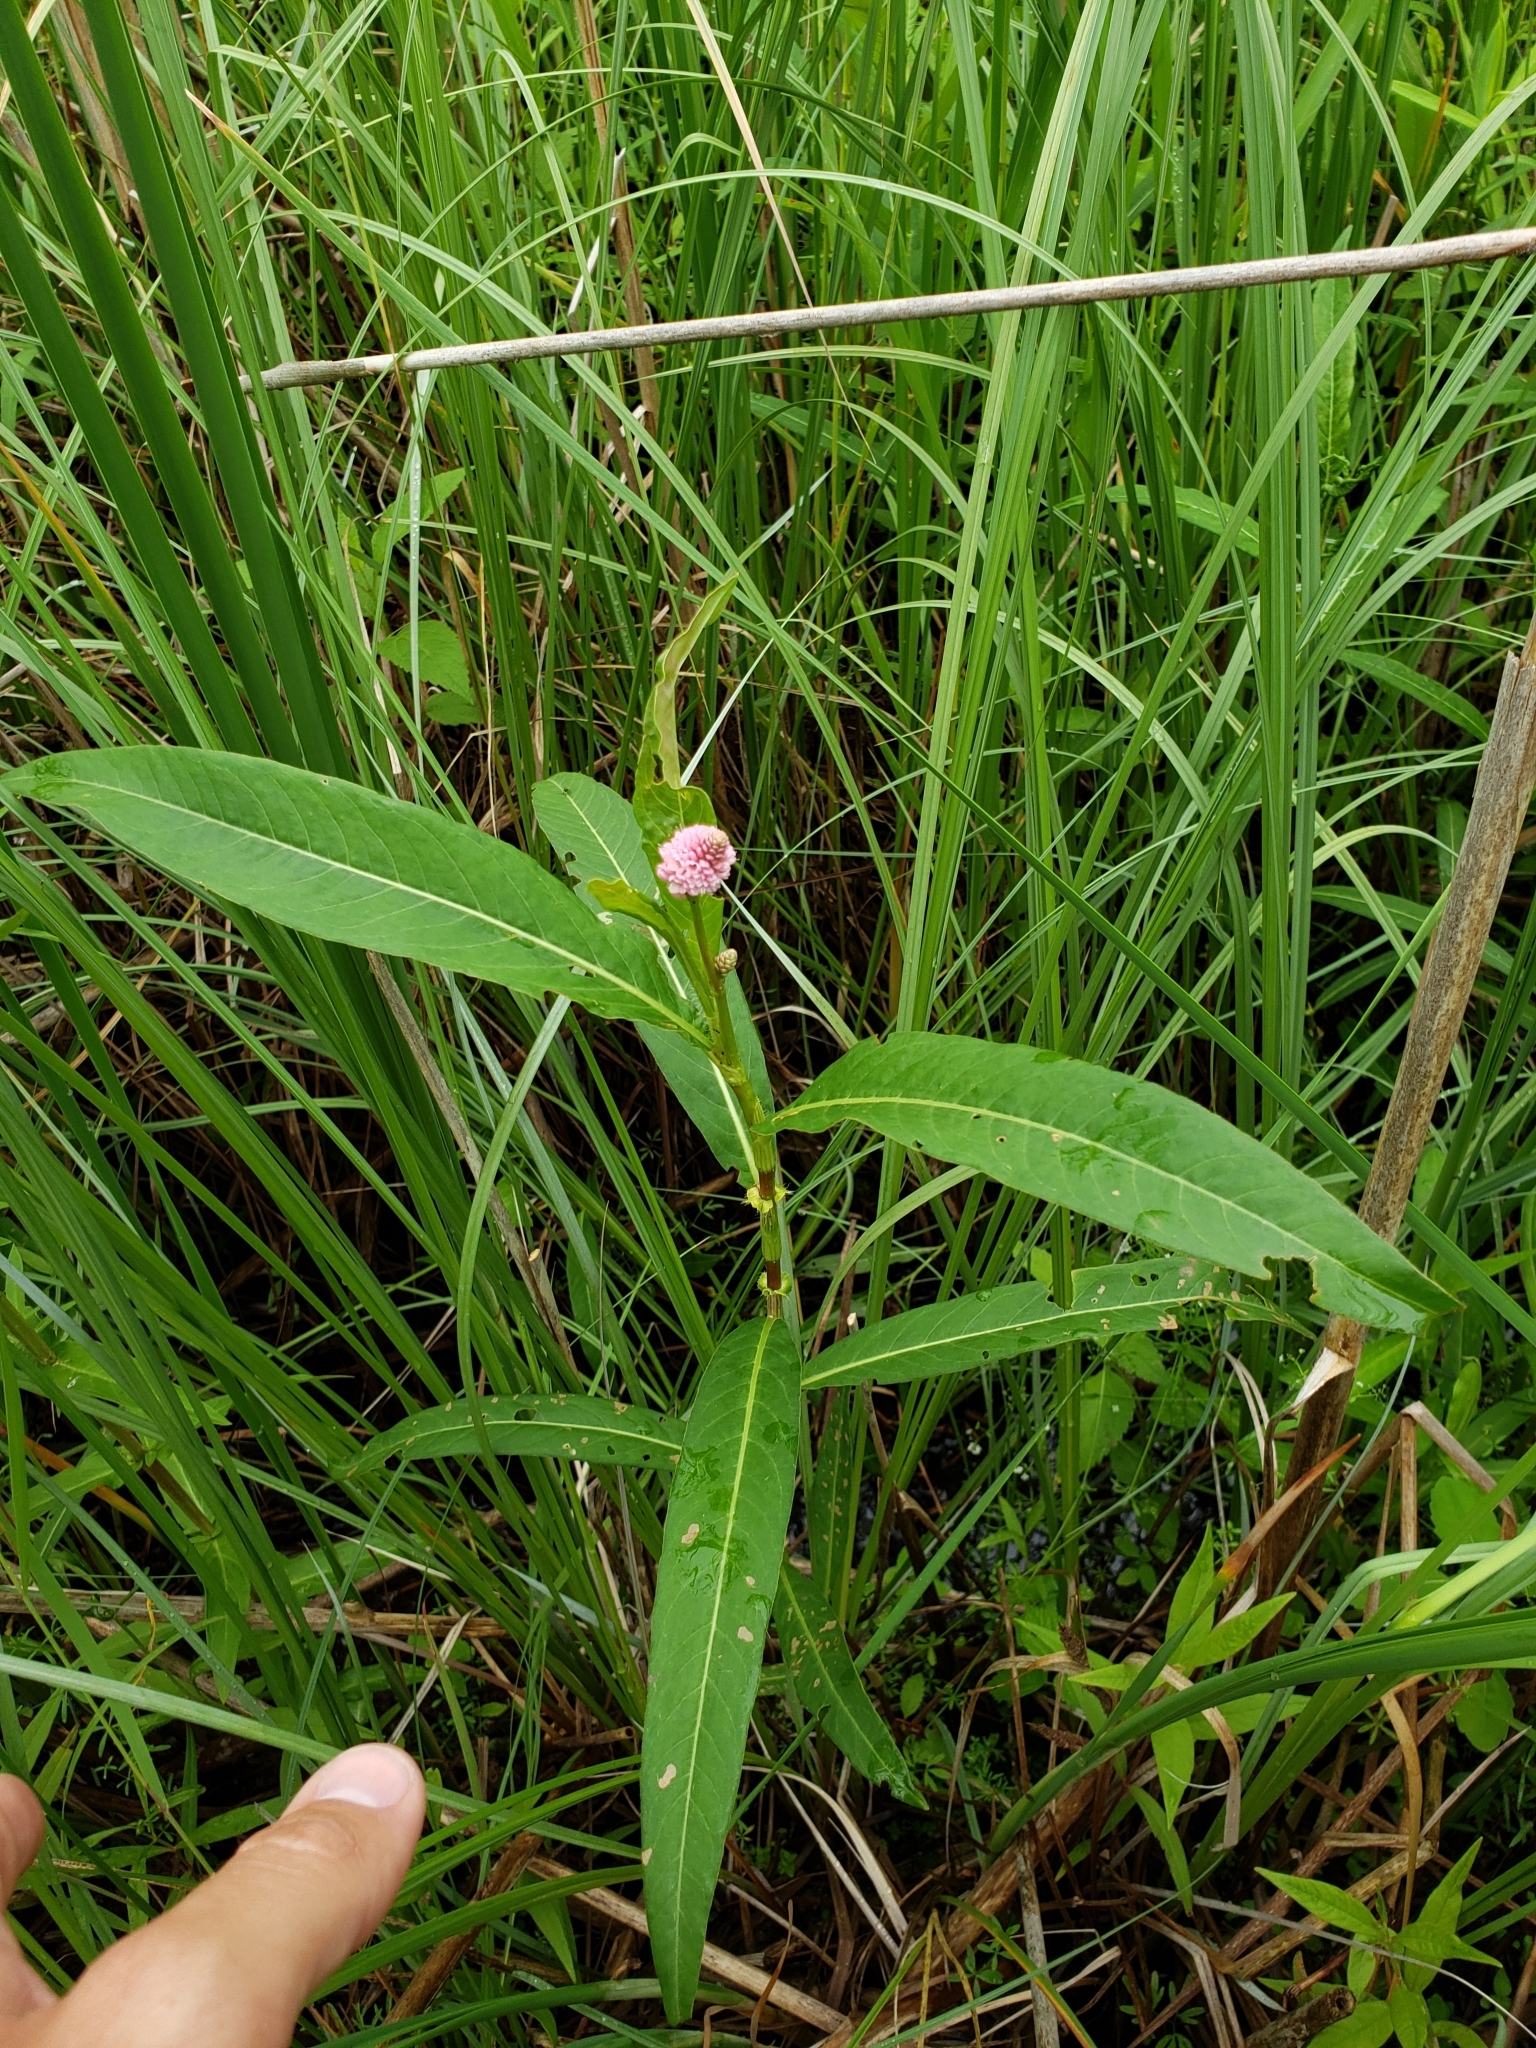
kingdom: Plantae
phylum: Tracheophyta
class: Magnoliopsida
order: Caryophyllales
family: Polygonaceae
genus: Persicaria
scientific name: Persicaria amphibia
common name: Amphibious bistort
